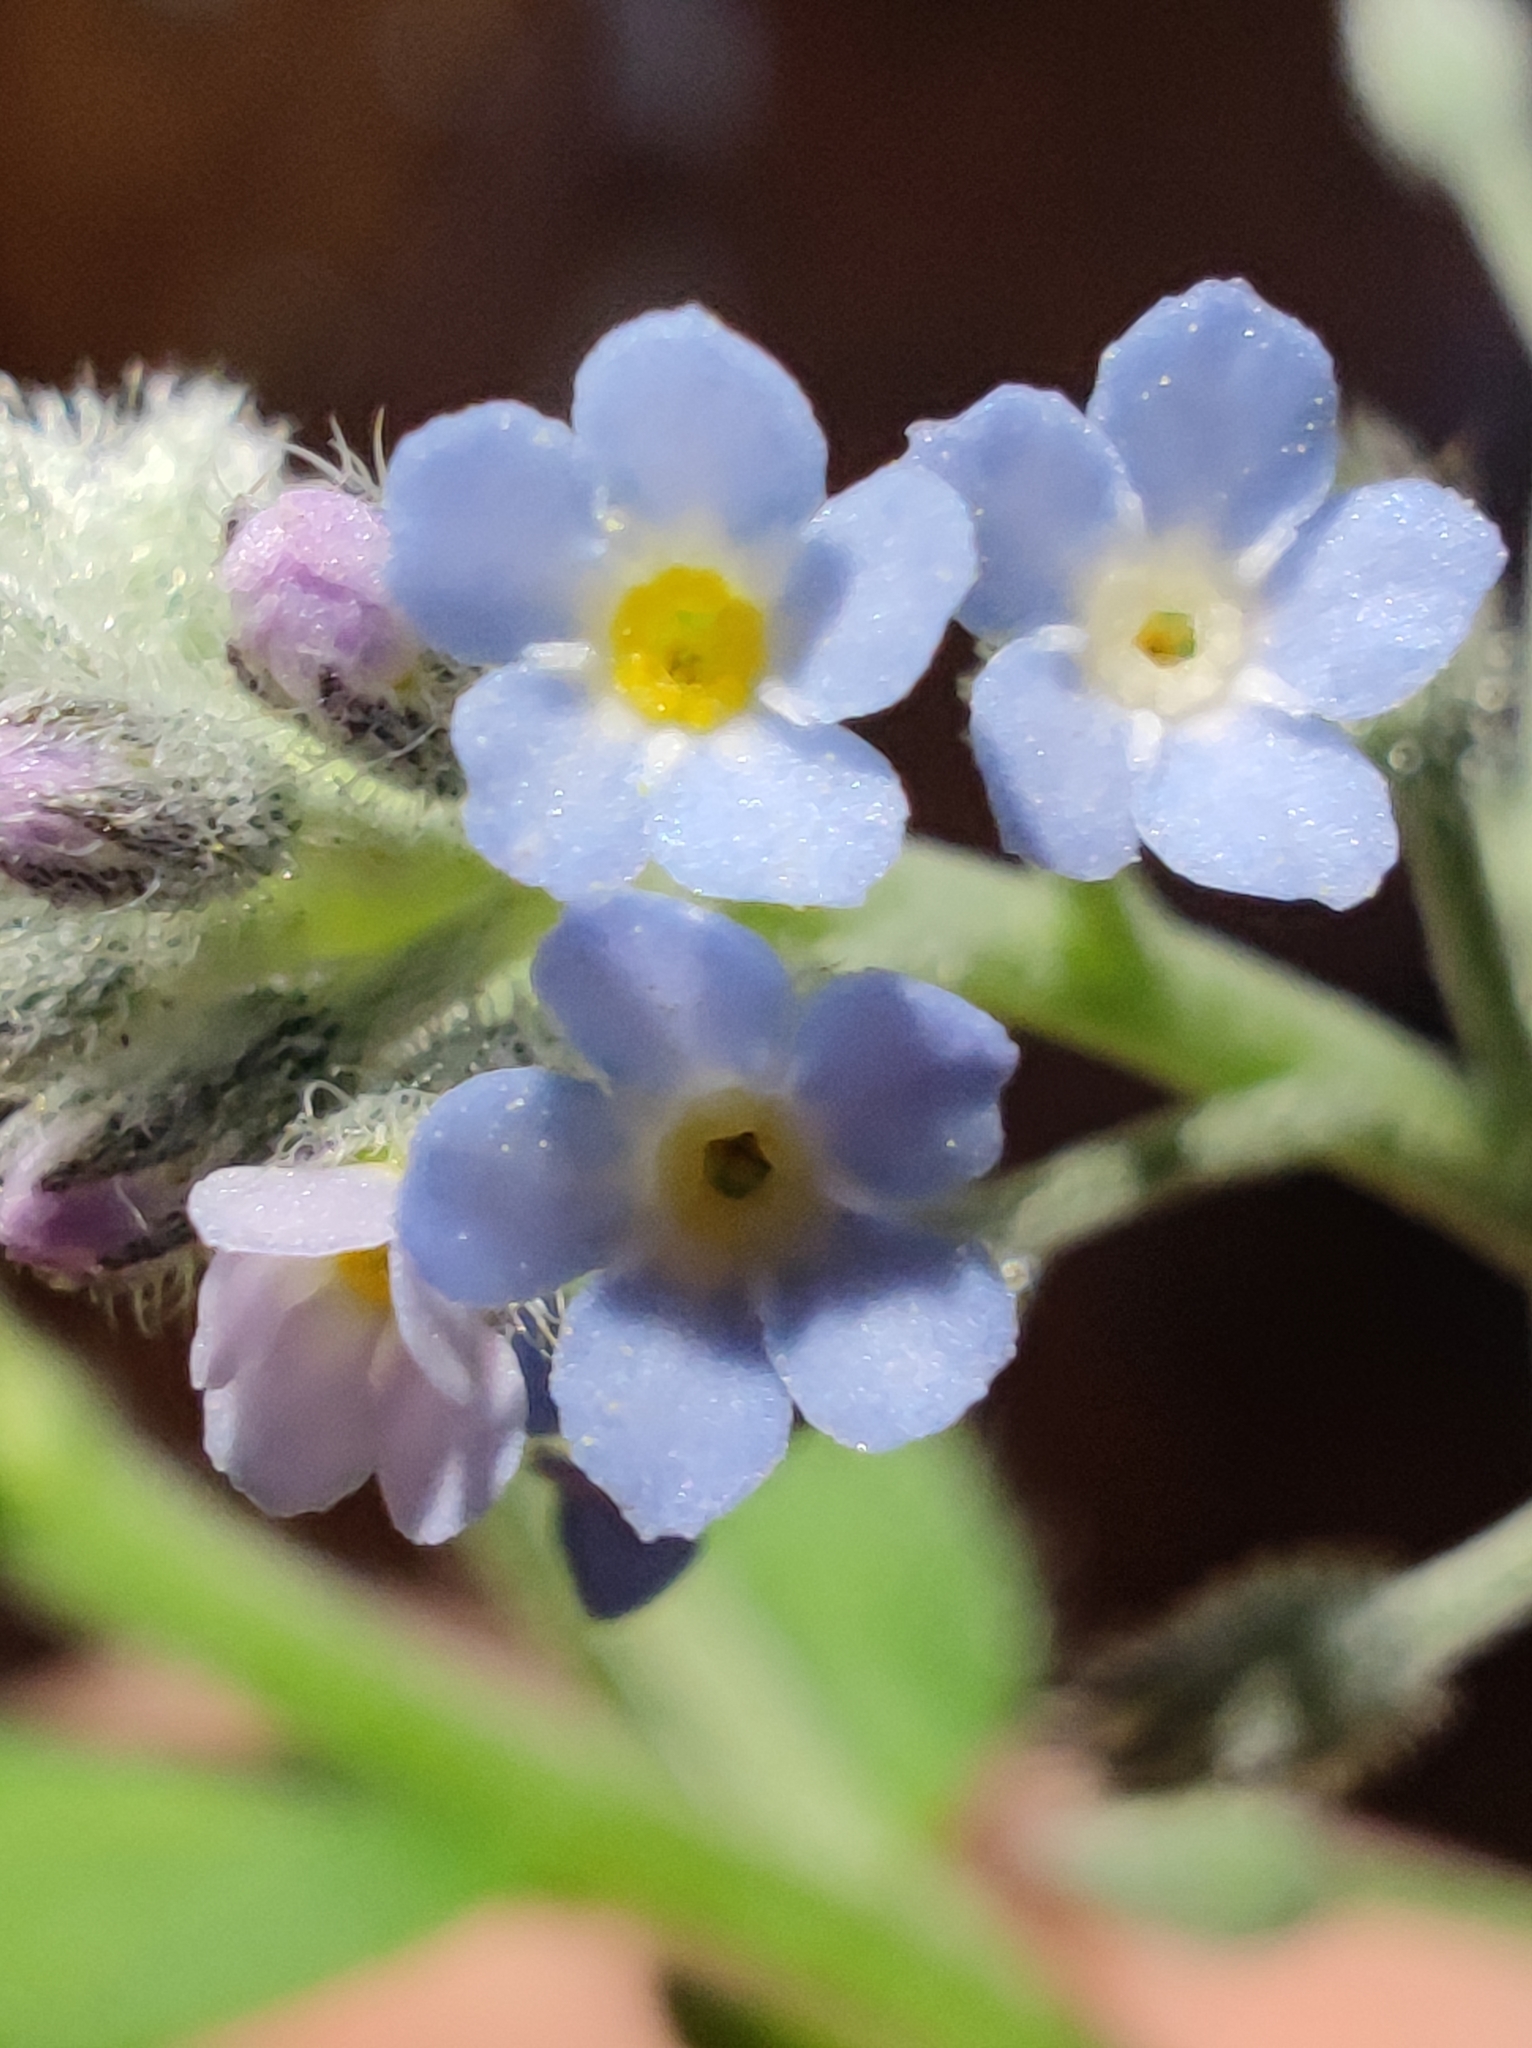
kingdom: Plantae
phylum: Tracheophyta
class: Magnoliopsida
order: Boraginales
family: Boraginaceae
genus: Myosotis
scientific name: Myosotis arvensis
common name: Field forget-me-not
